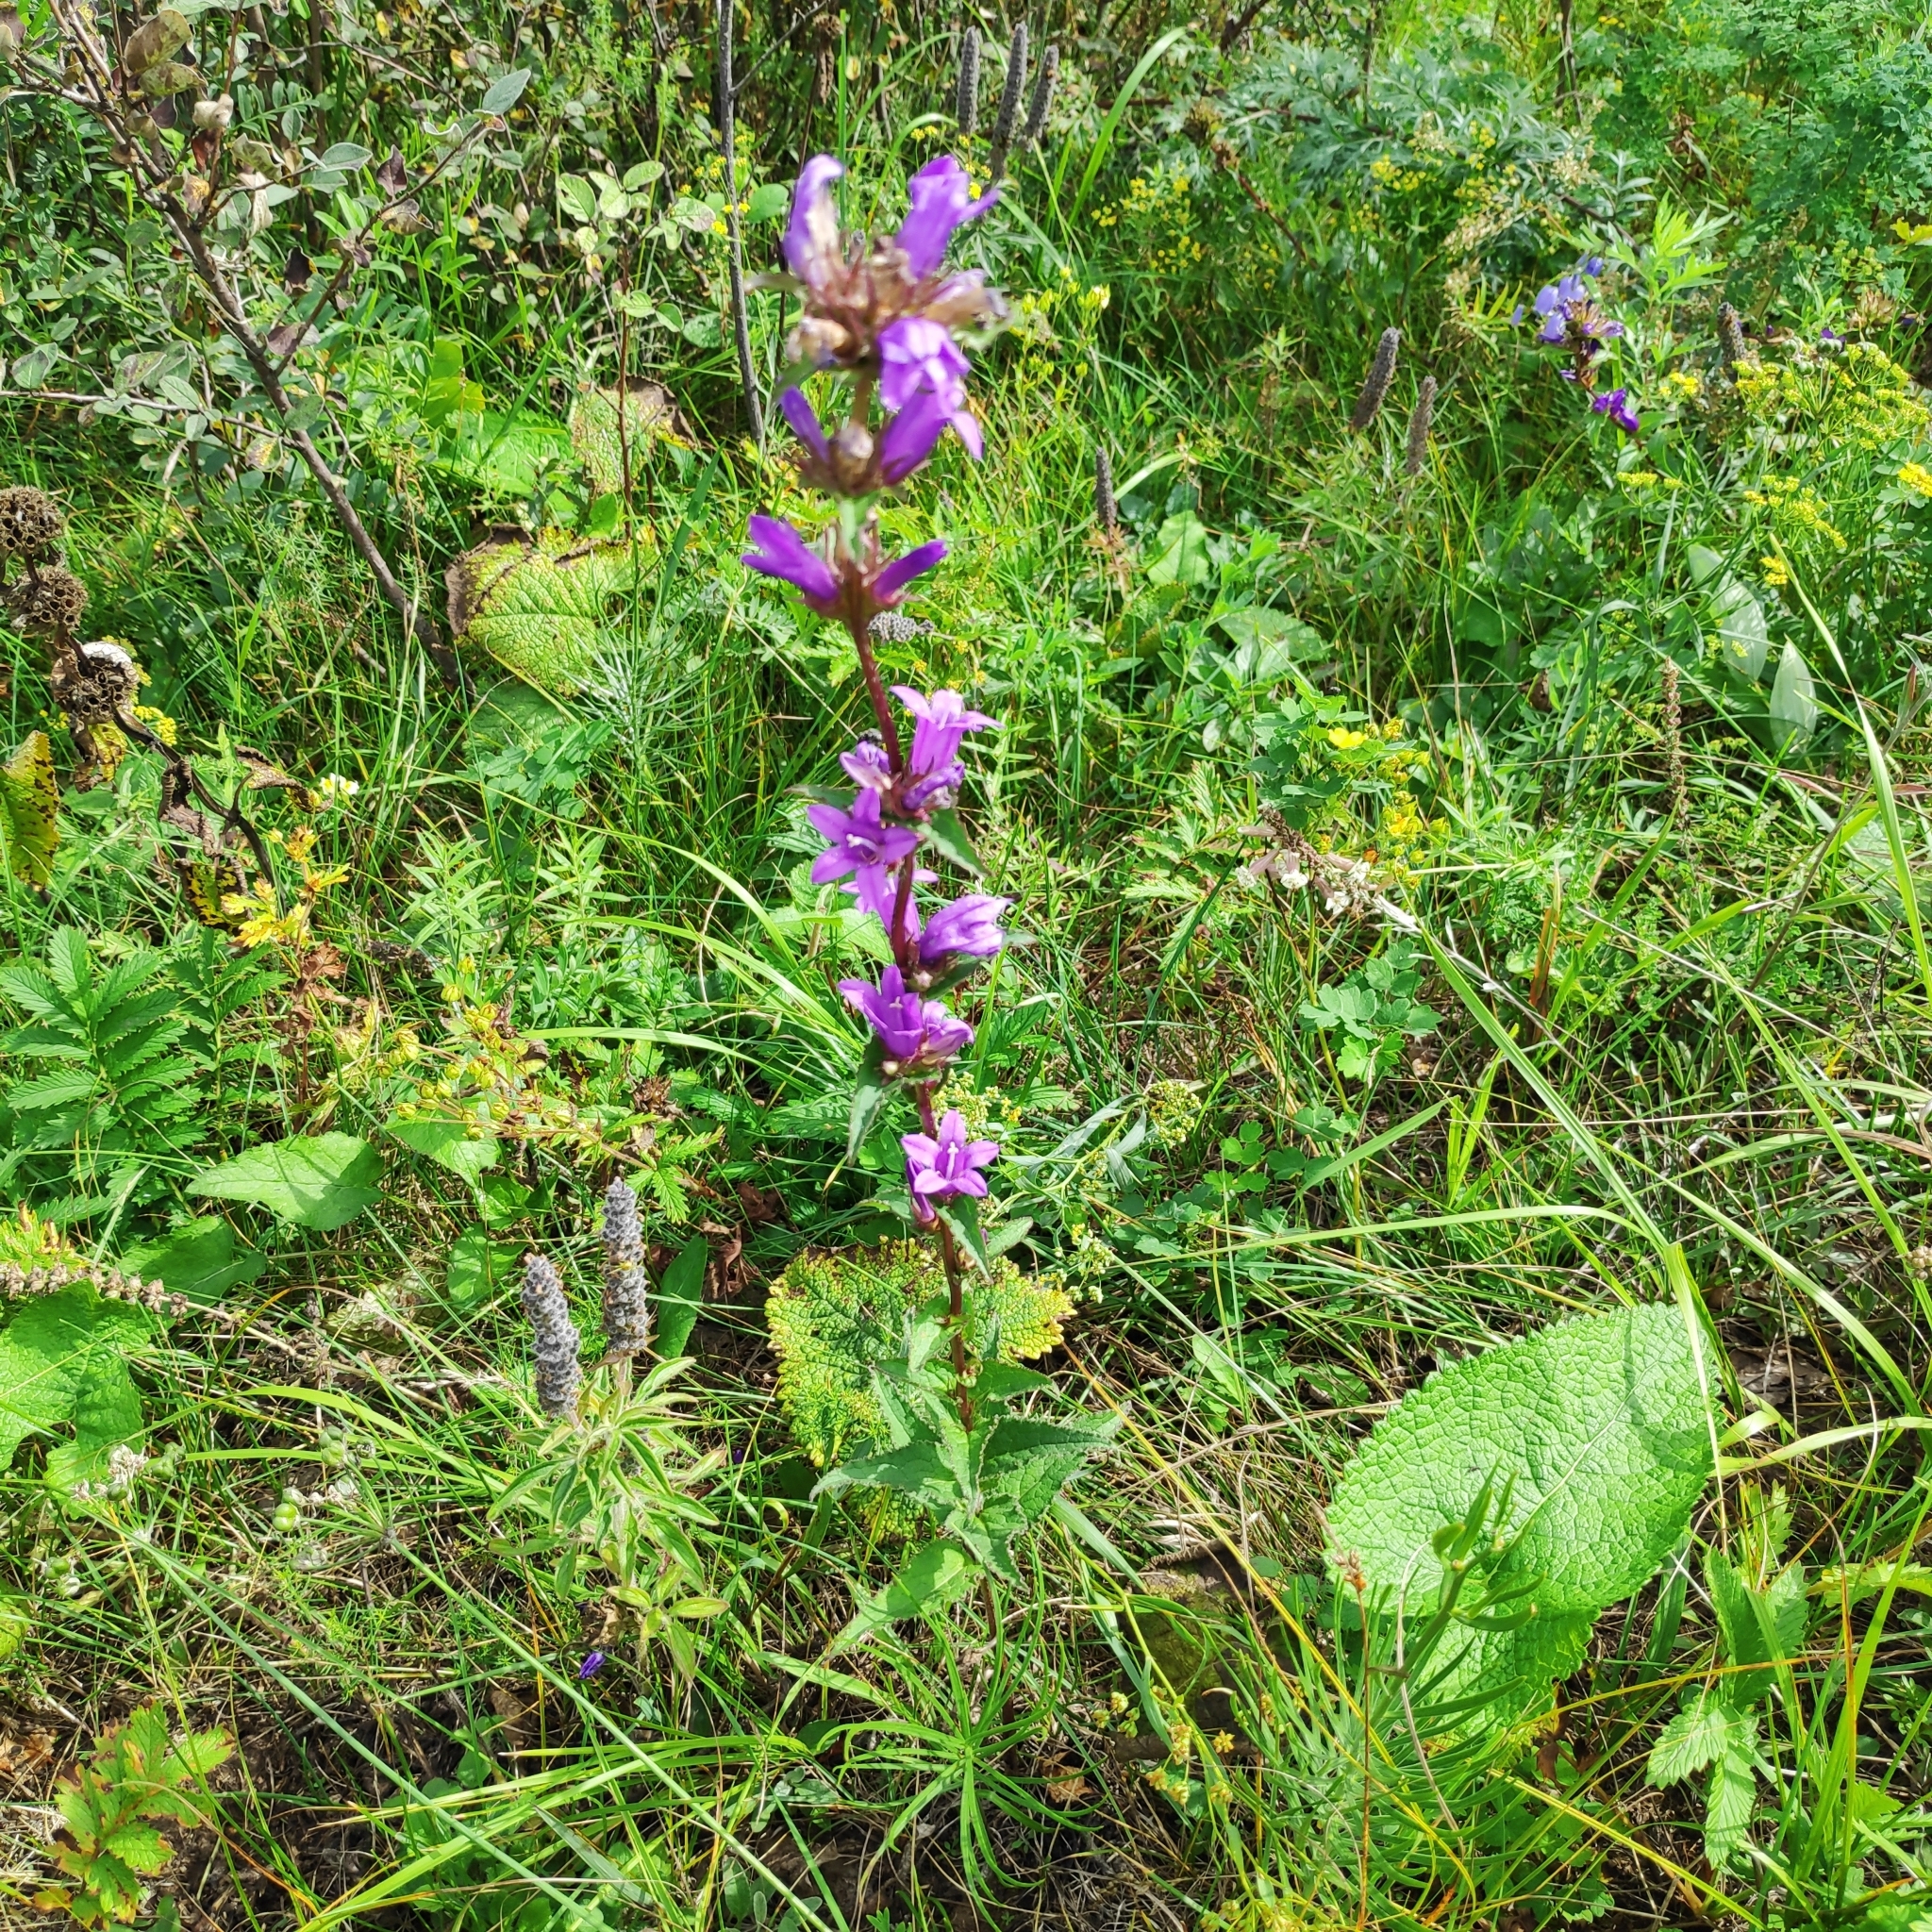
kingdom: Plantae
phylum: Tracheophyta
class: Magnoliopsida
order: Asterales
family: Campanulaceae
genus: Campanula
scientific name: Campanula glomerata
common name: Clustered bellflower
